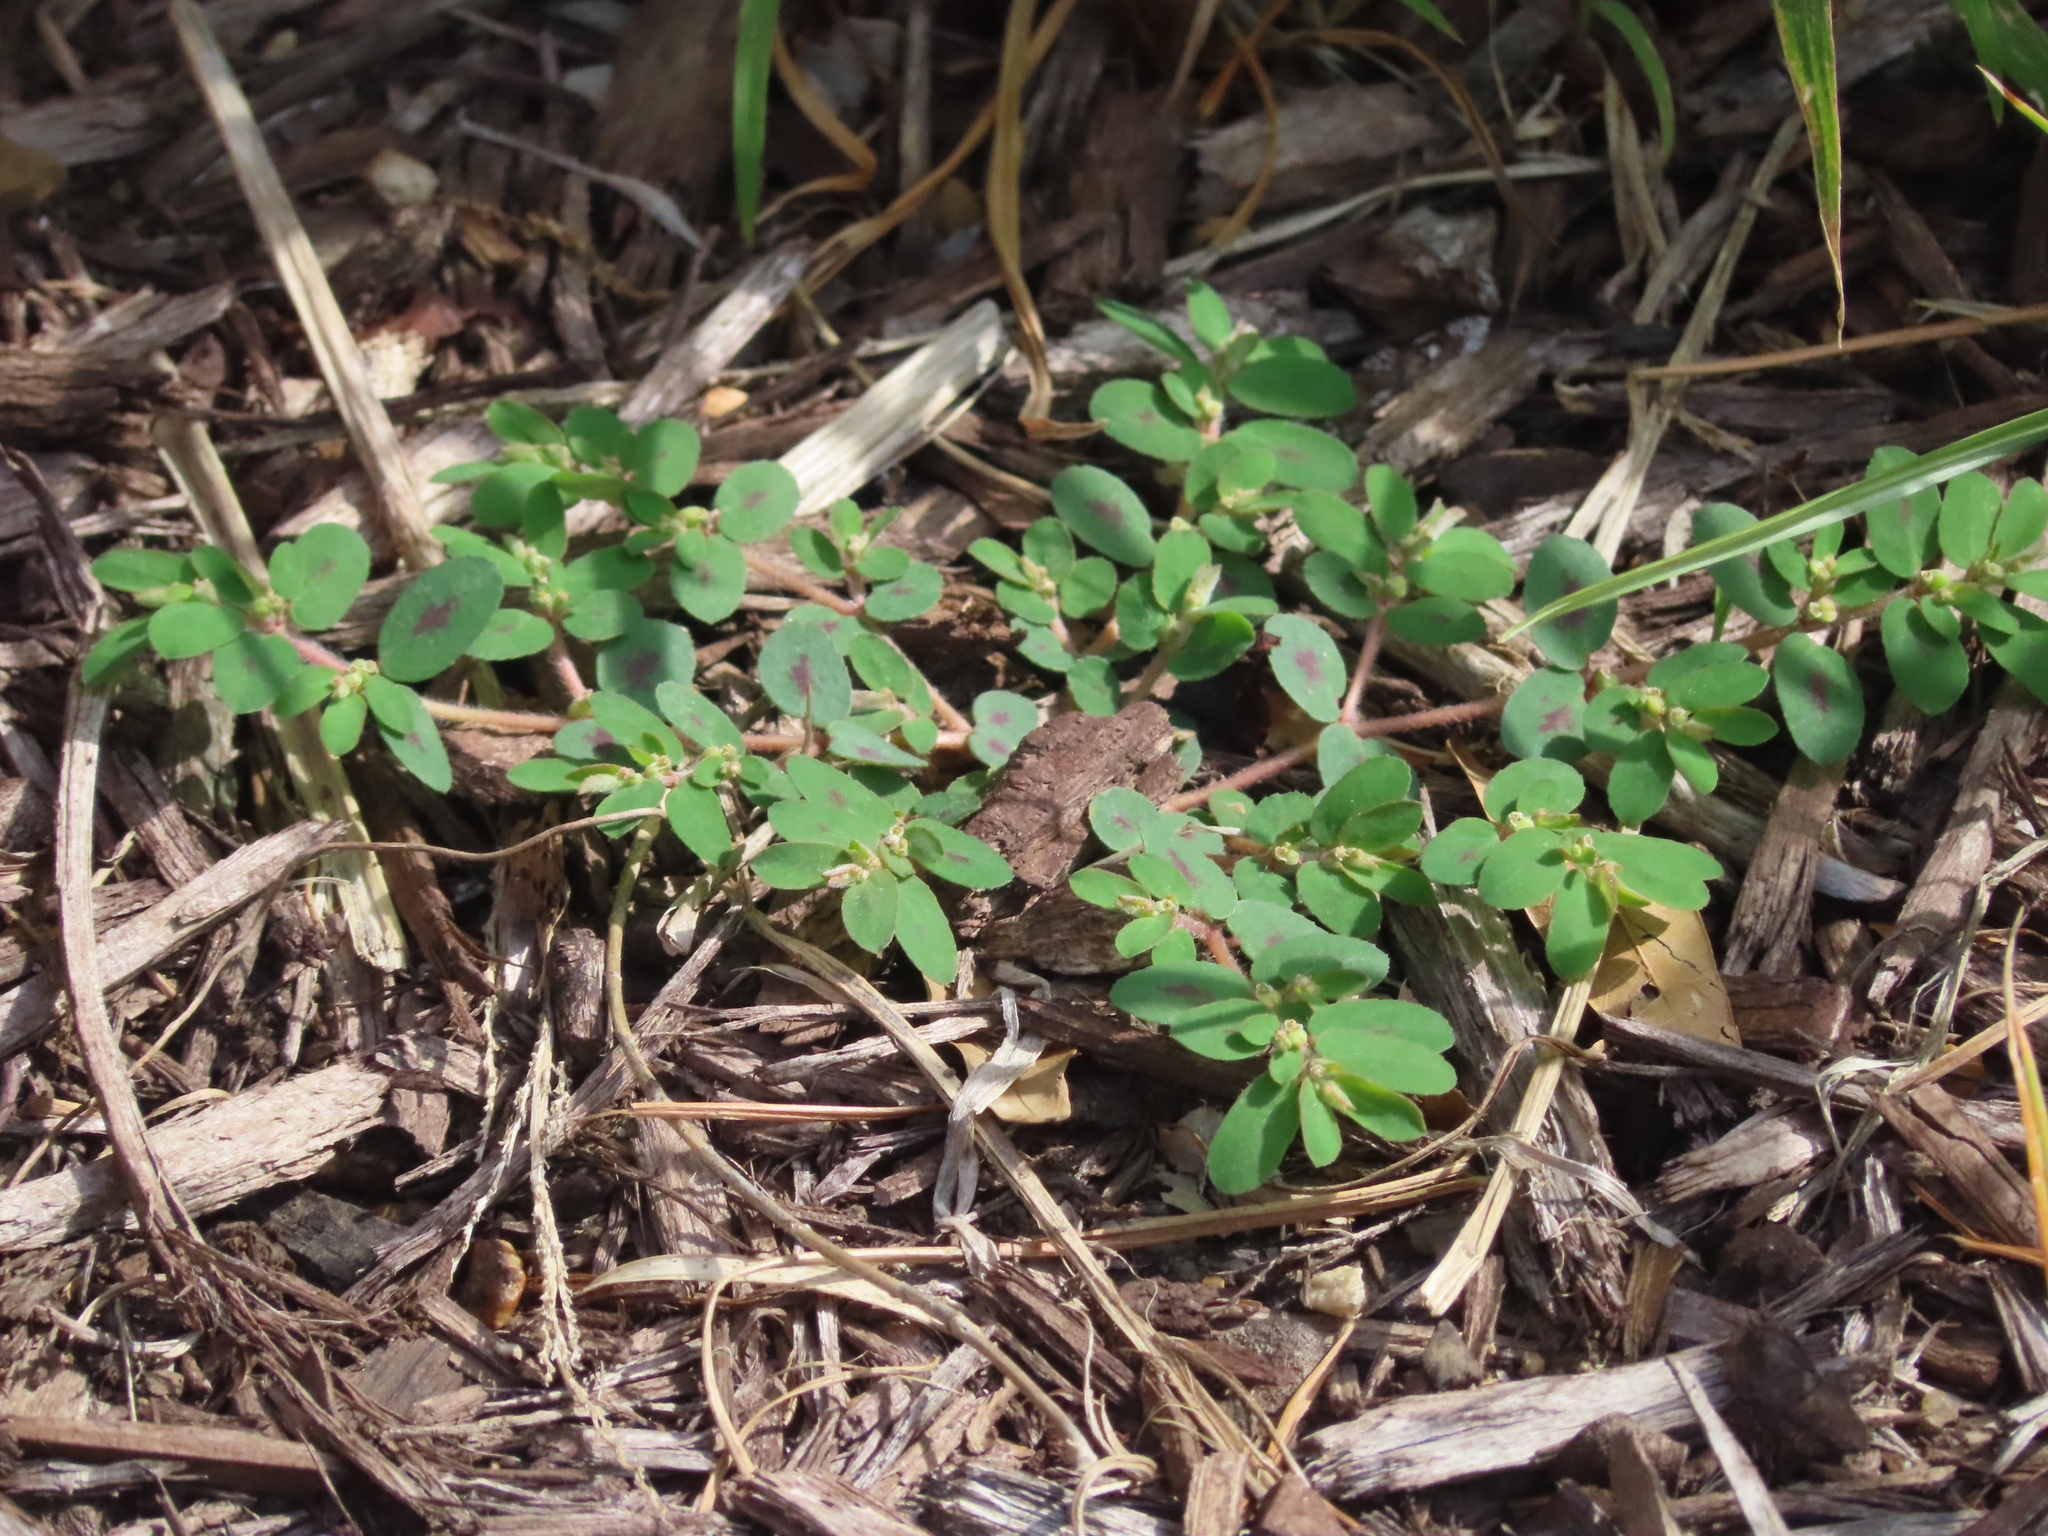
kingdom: Plantae
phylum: Tracheophyta
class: Magnoliopsida
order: Malpighiales
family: Euphorbiaceae
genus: Euphorbia
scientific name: Euphorbia maculata
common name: Spotted spurge
